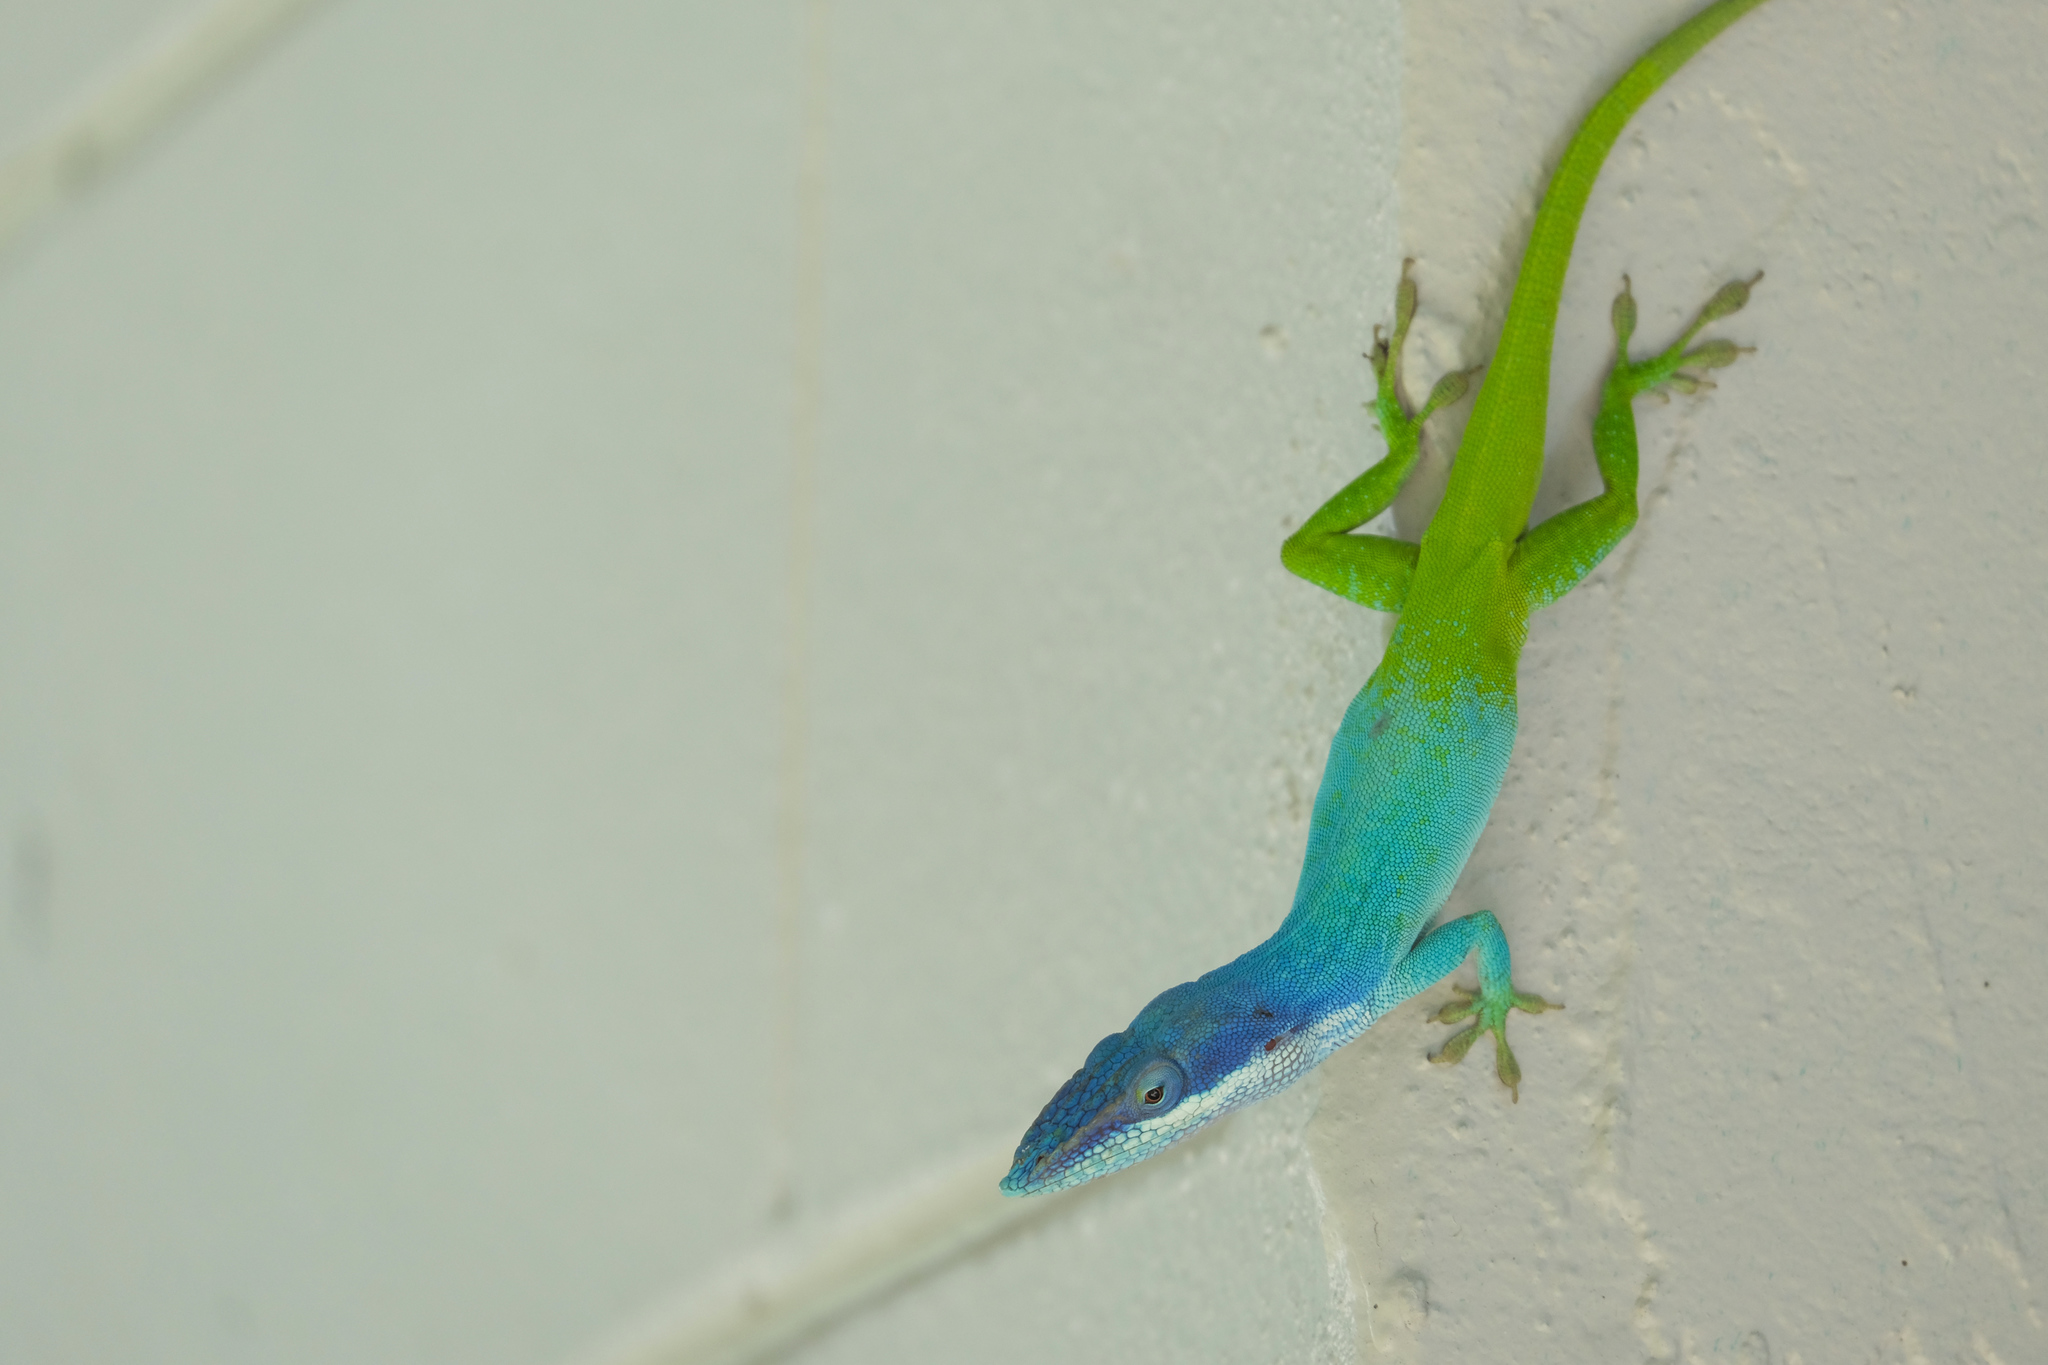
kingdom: Animalia
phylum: Chordata
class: Squamata
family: Dactyloidae
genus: Anolis
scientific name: Anolis allisoni
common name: Allison's anole
